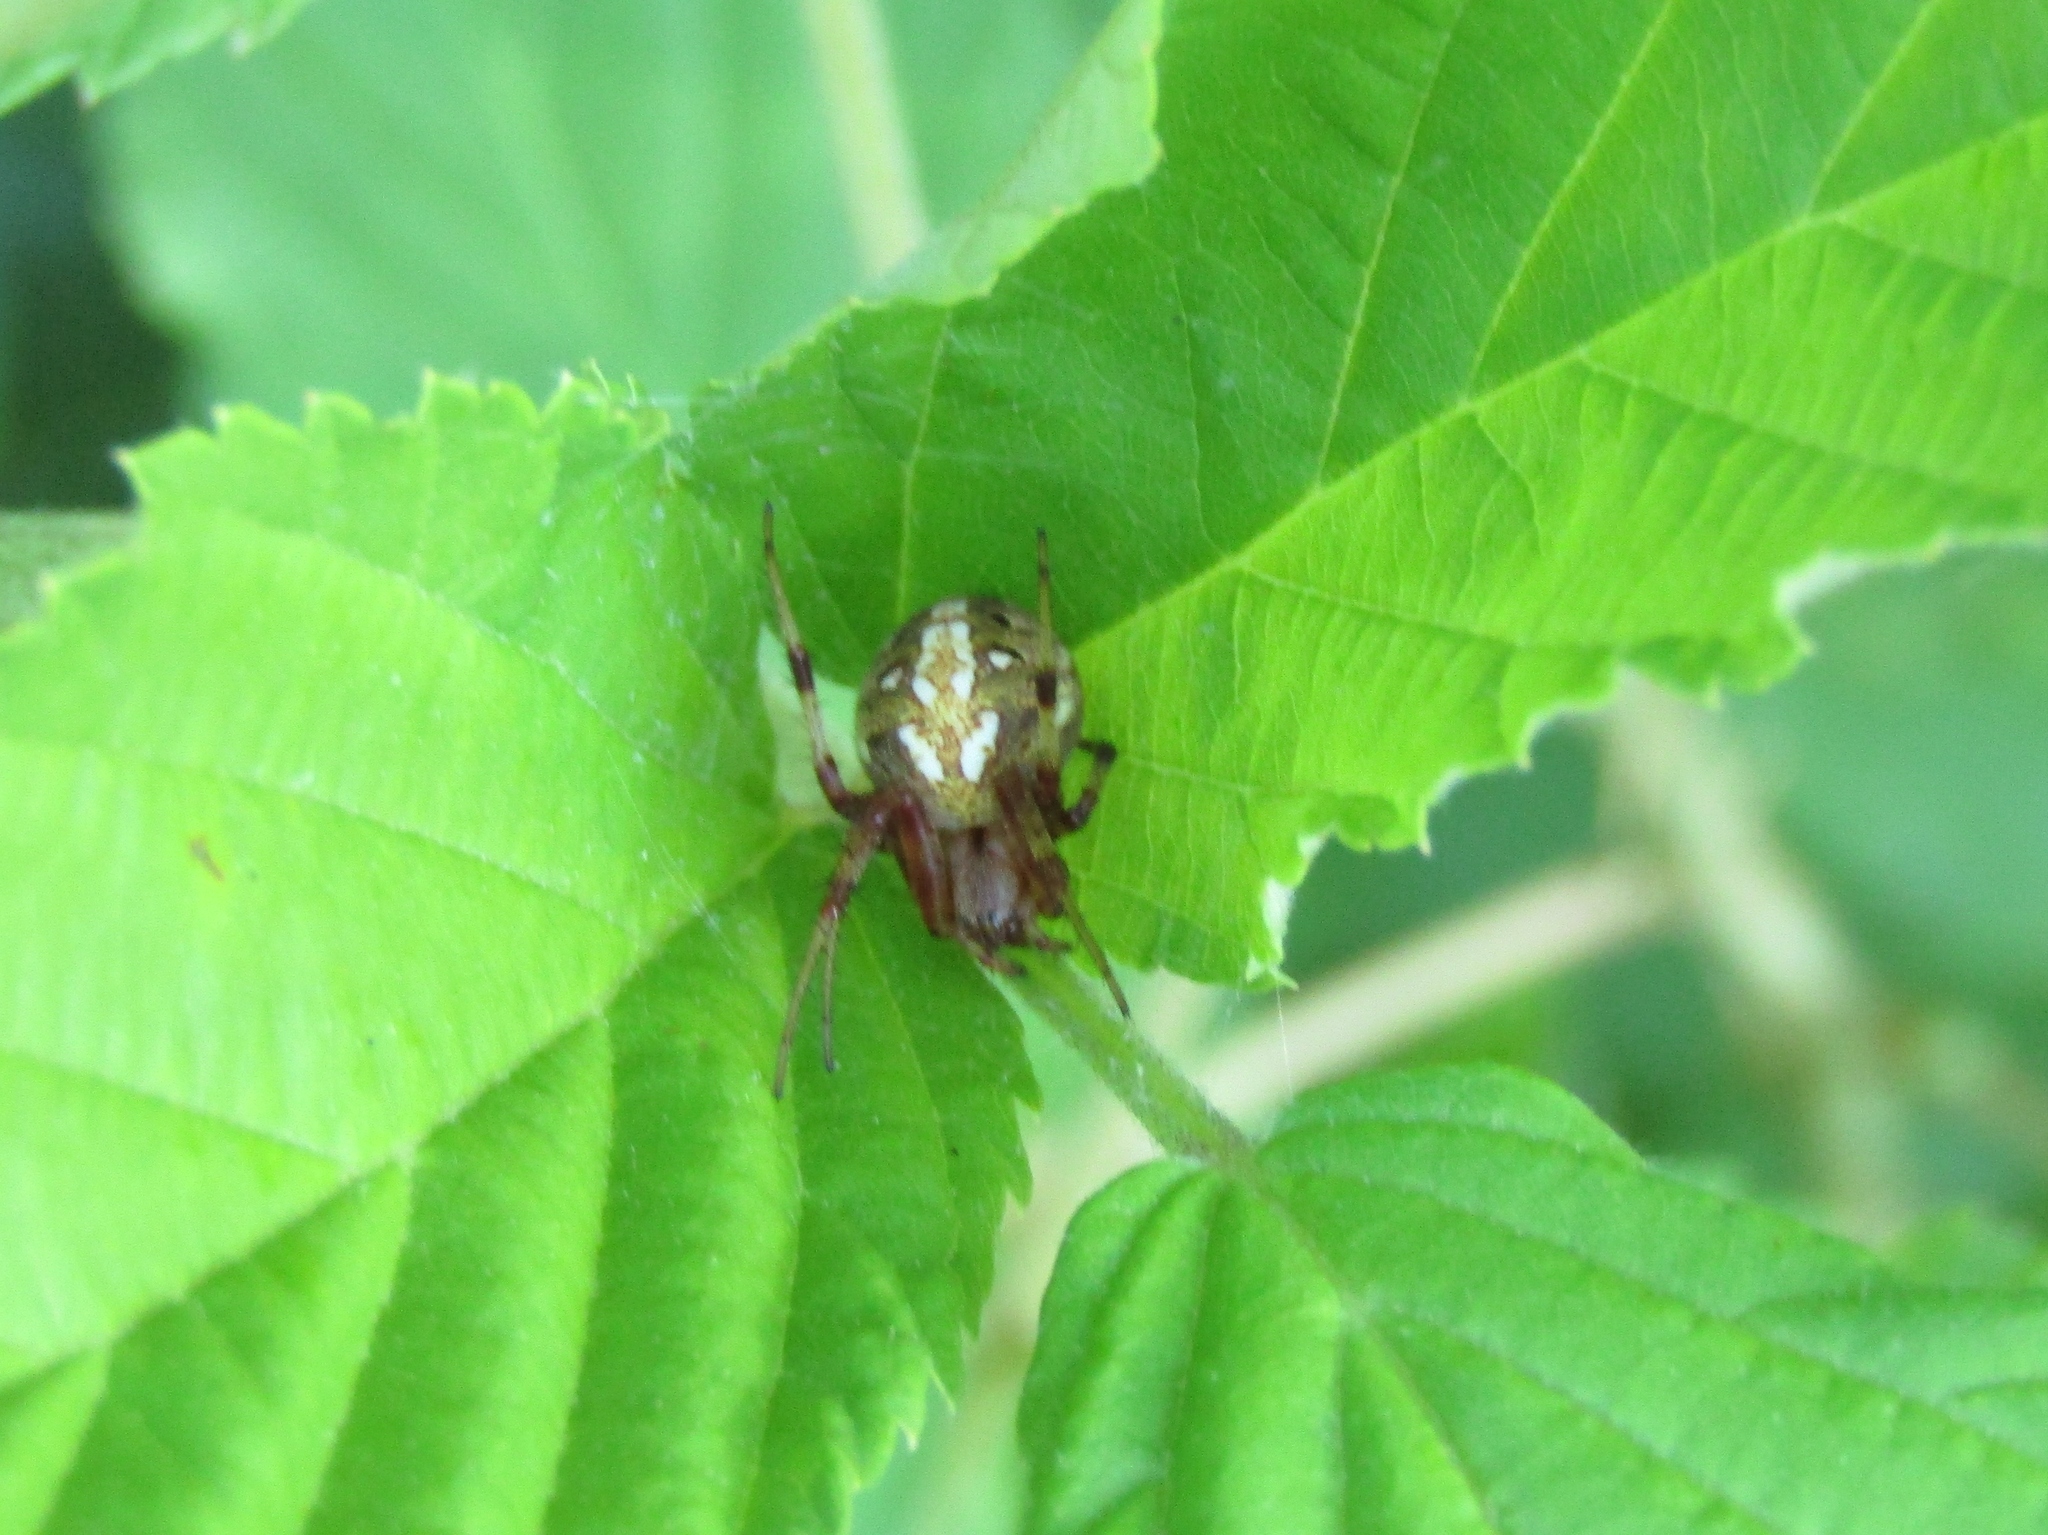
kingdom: Animalia
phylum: Arthropoda
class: Arachnida
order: Araneae
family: Araneidae
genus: Neoscona
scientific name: Neoscona arabesca
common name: Orb weavers
